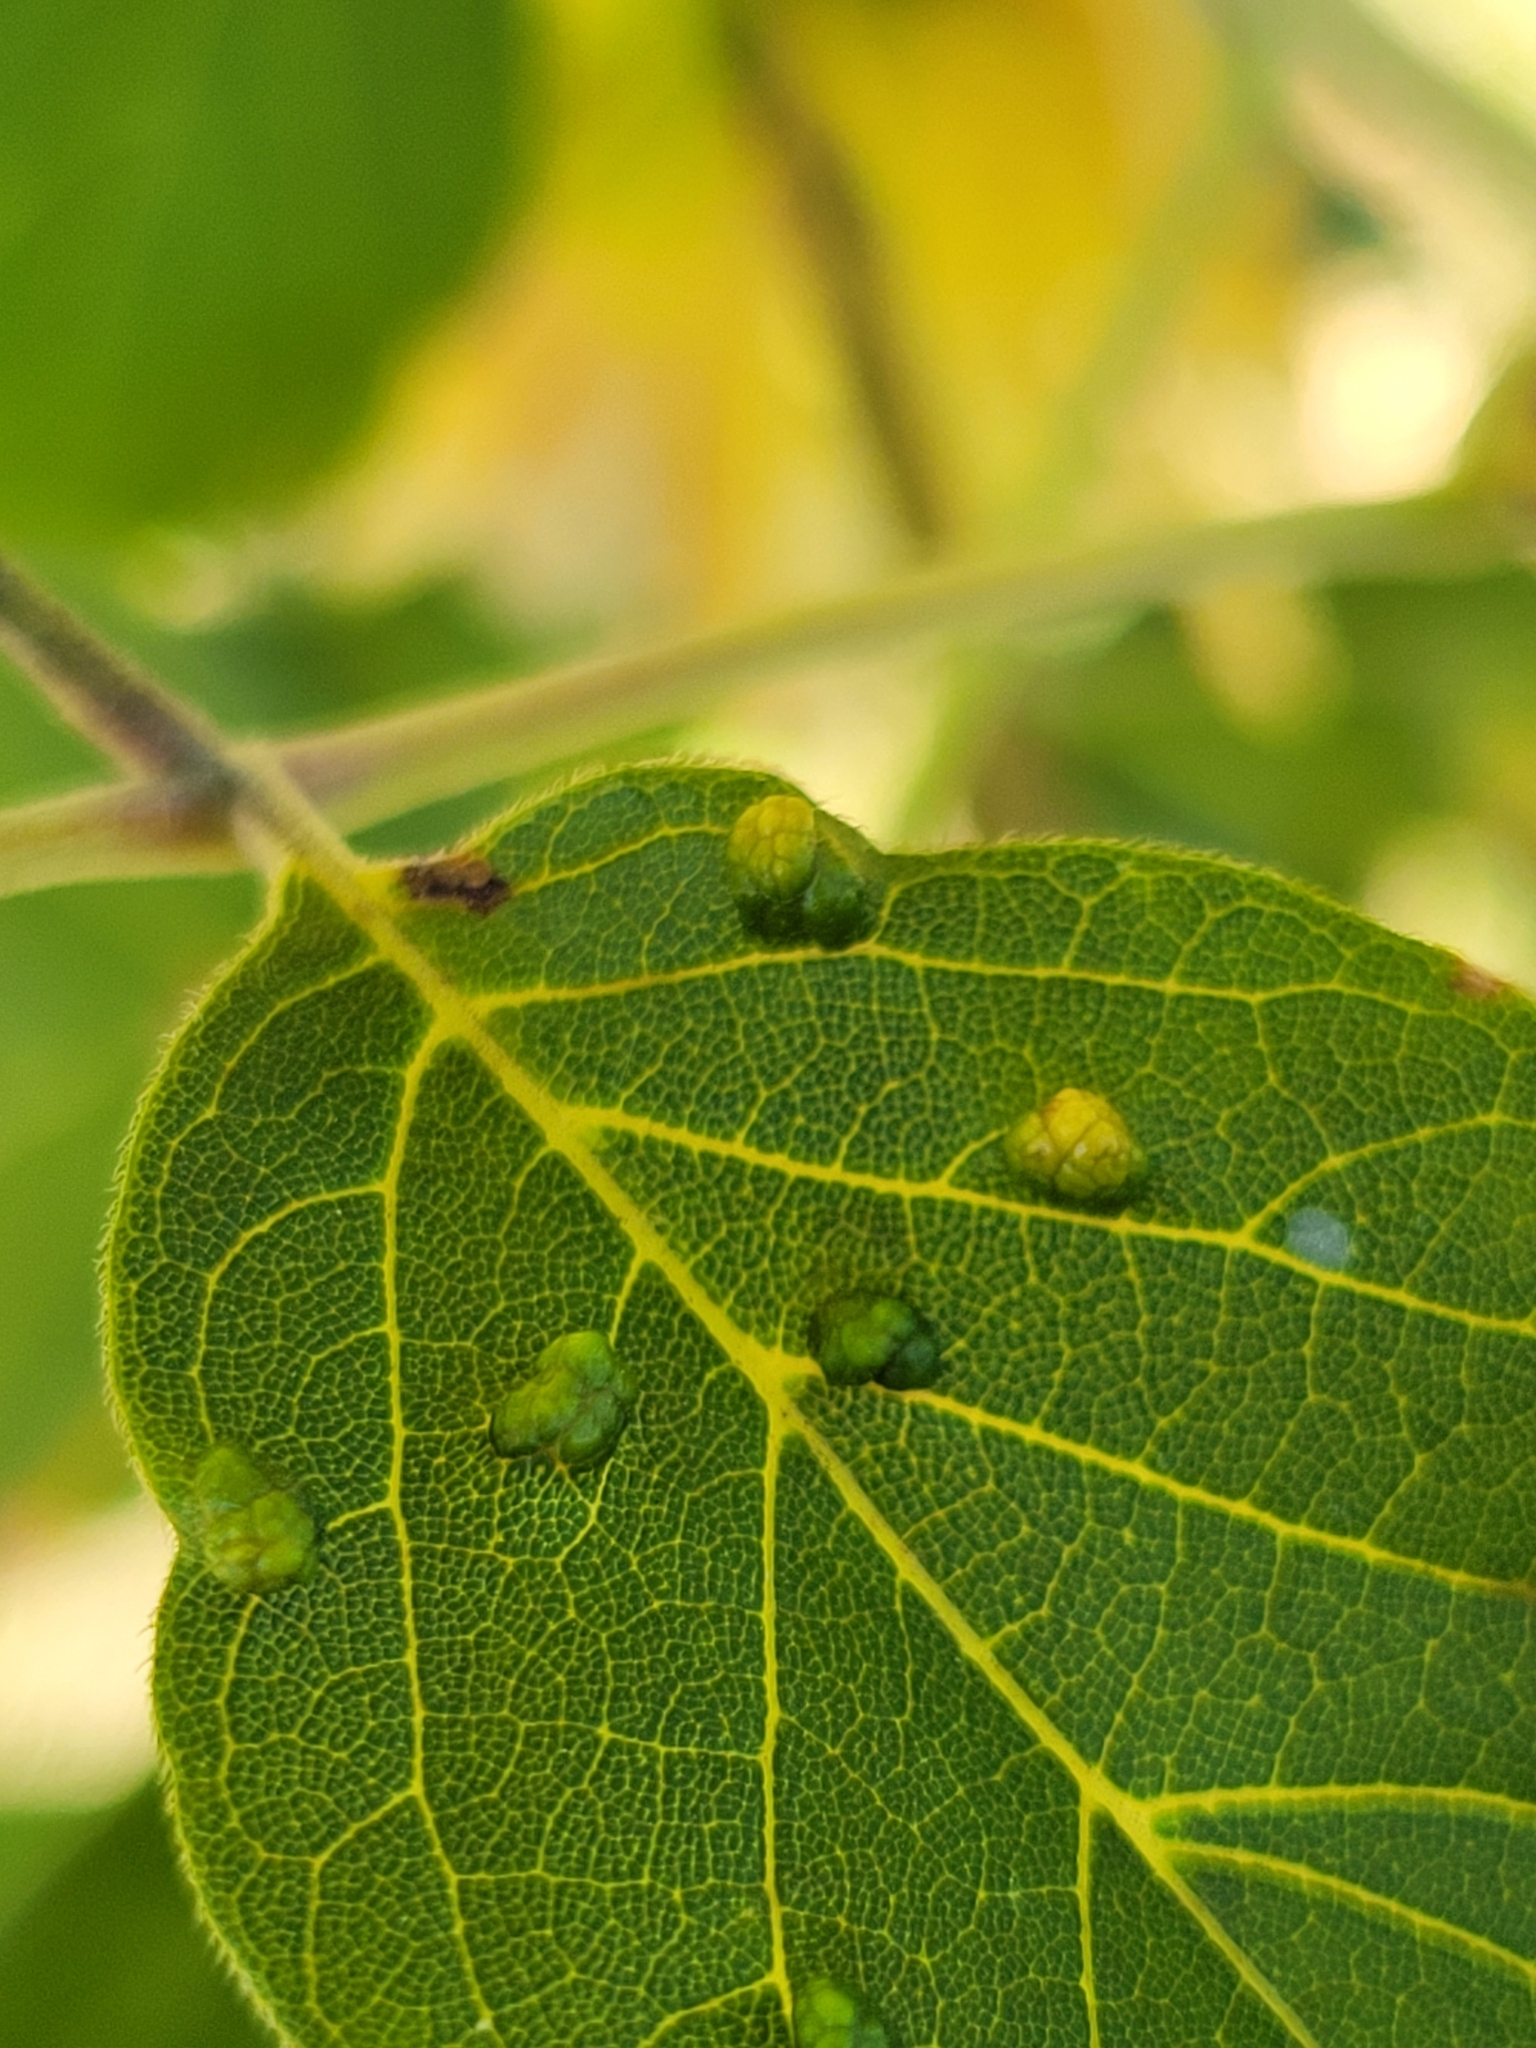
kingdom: Animalia
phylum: Arthropoda
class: Arachnida
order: Trombidiformes
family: Eriophyidae
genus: Aceria
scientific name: Aceria
